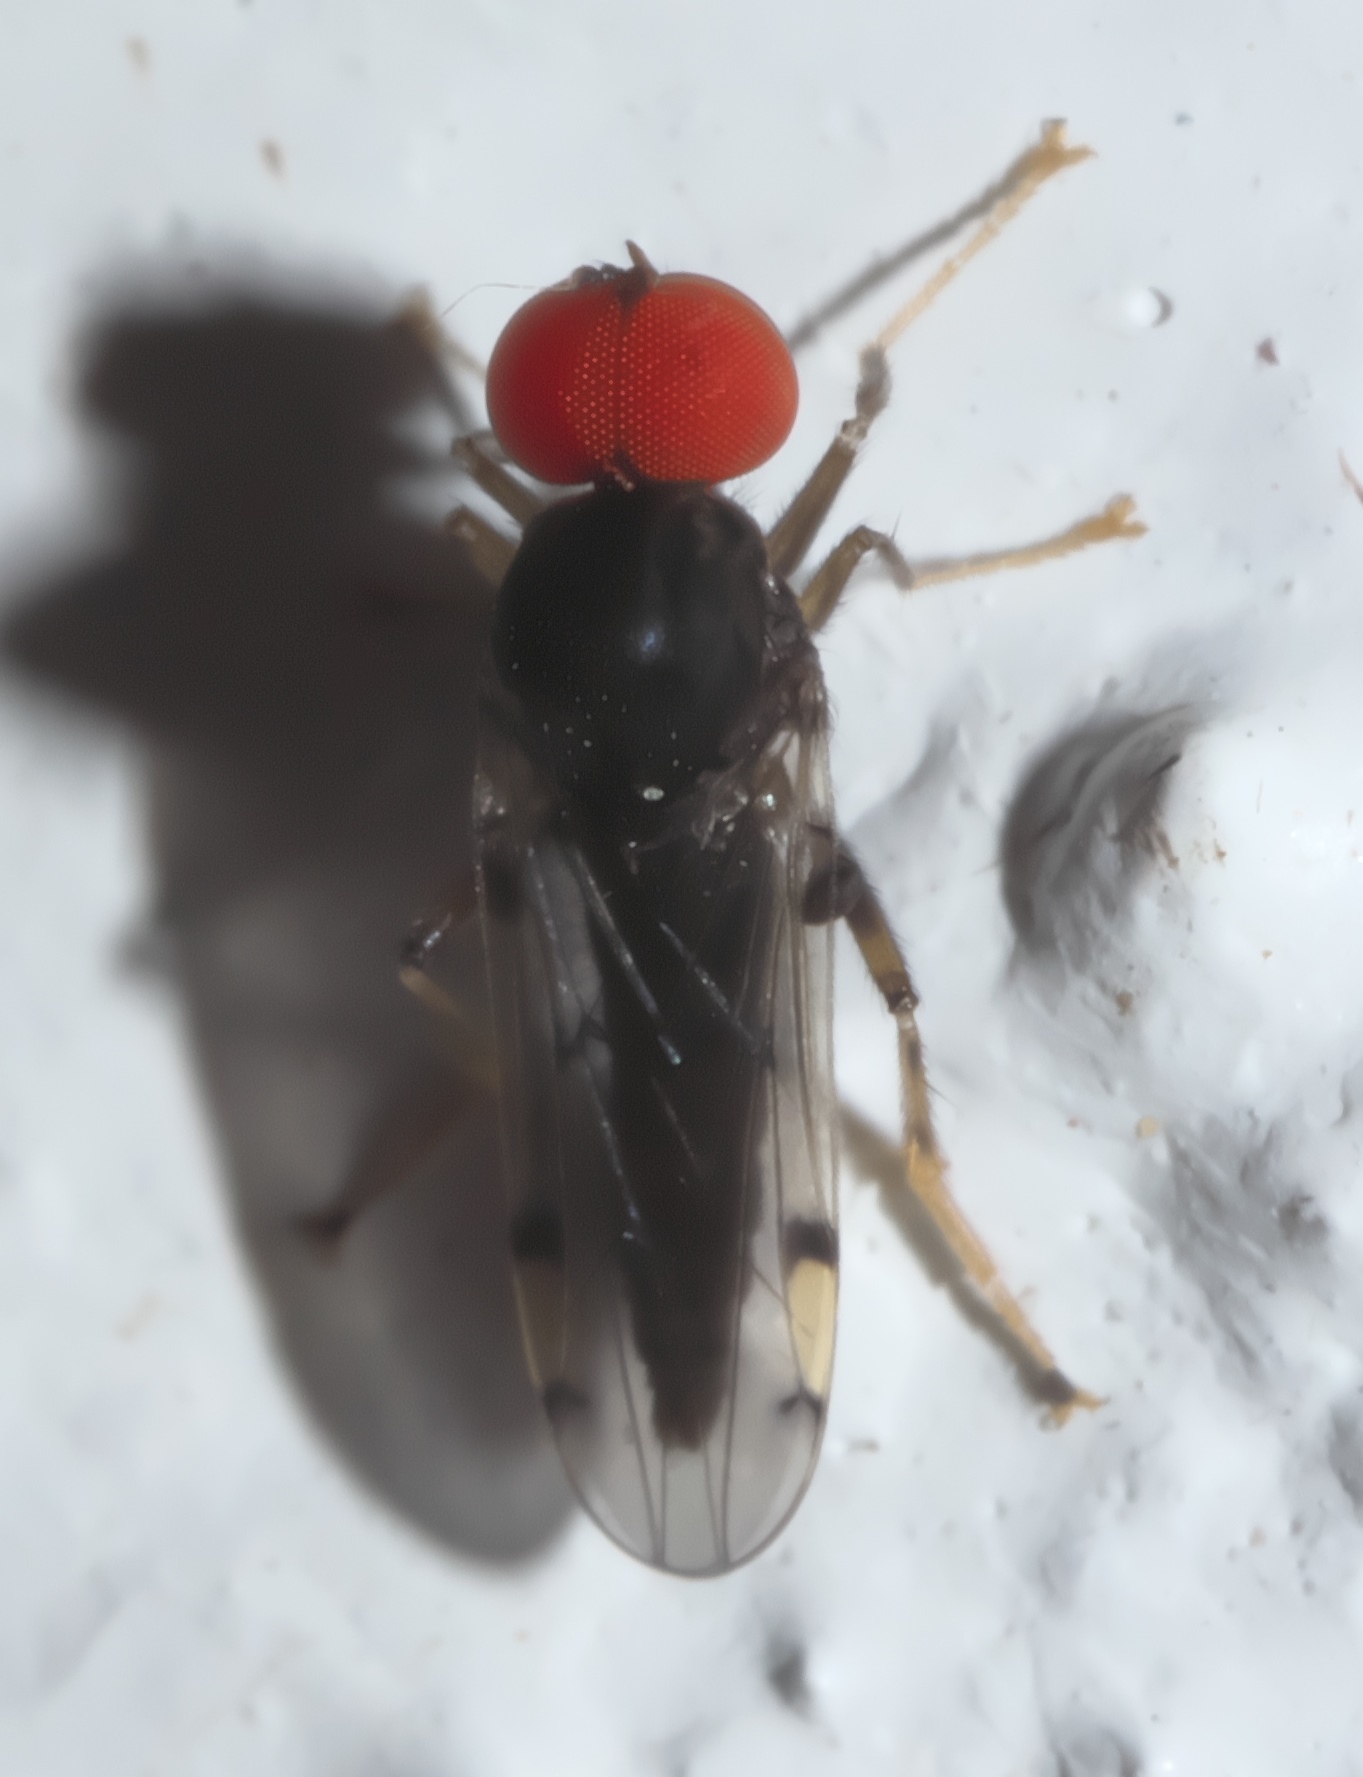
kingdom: Animalia
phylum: Arthropoda
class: Insecta
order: Diptera
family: Hybotidae
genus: Syneches
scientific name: Syneches simplex
